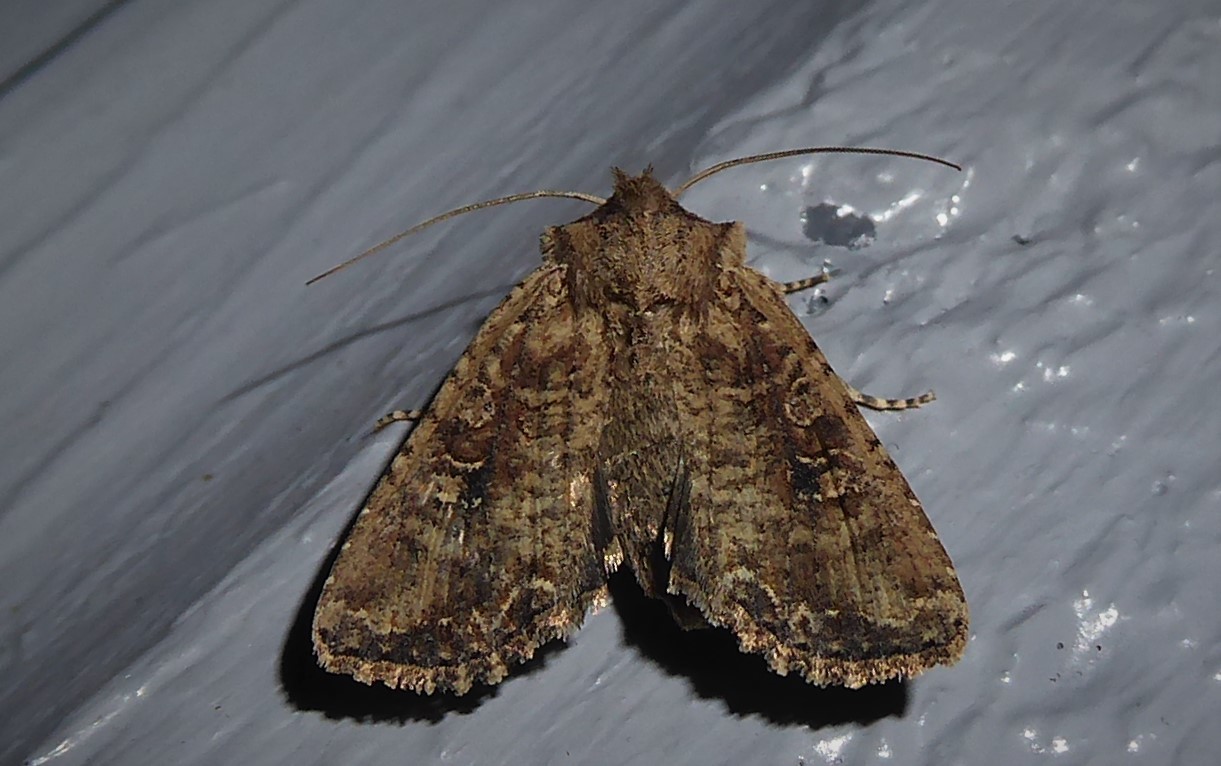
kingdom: Animalia
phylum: Arthropoda
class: Insecta
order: Lepidoptera
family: Noctuidae
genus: Ichneutica
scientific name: Ichneutica morosa
